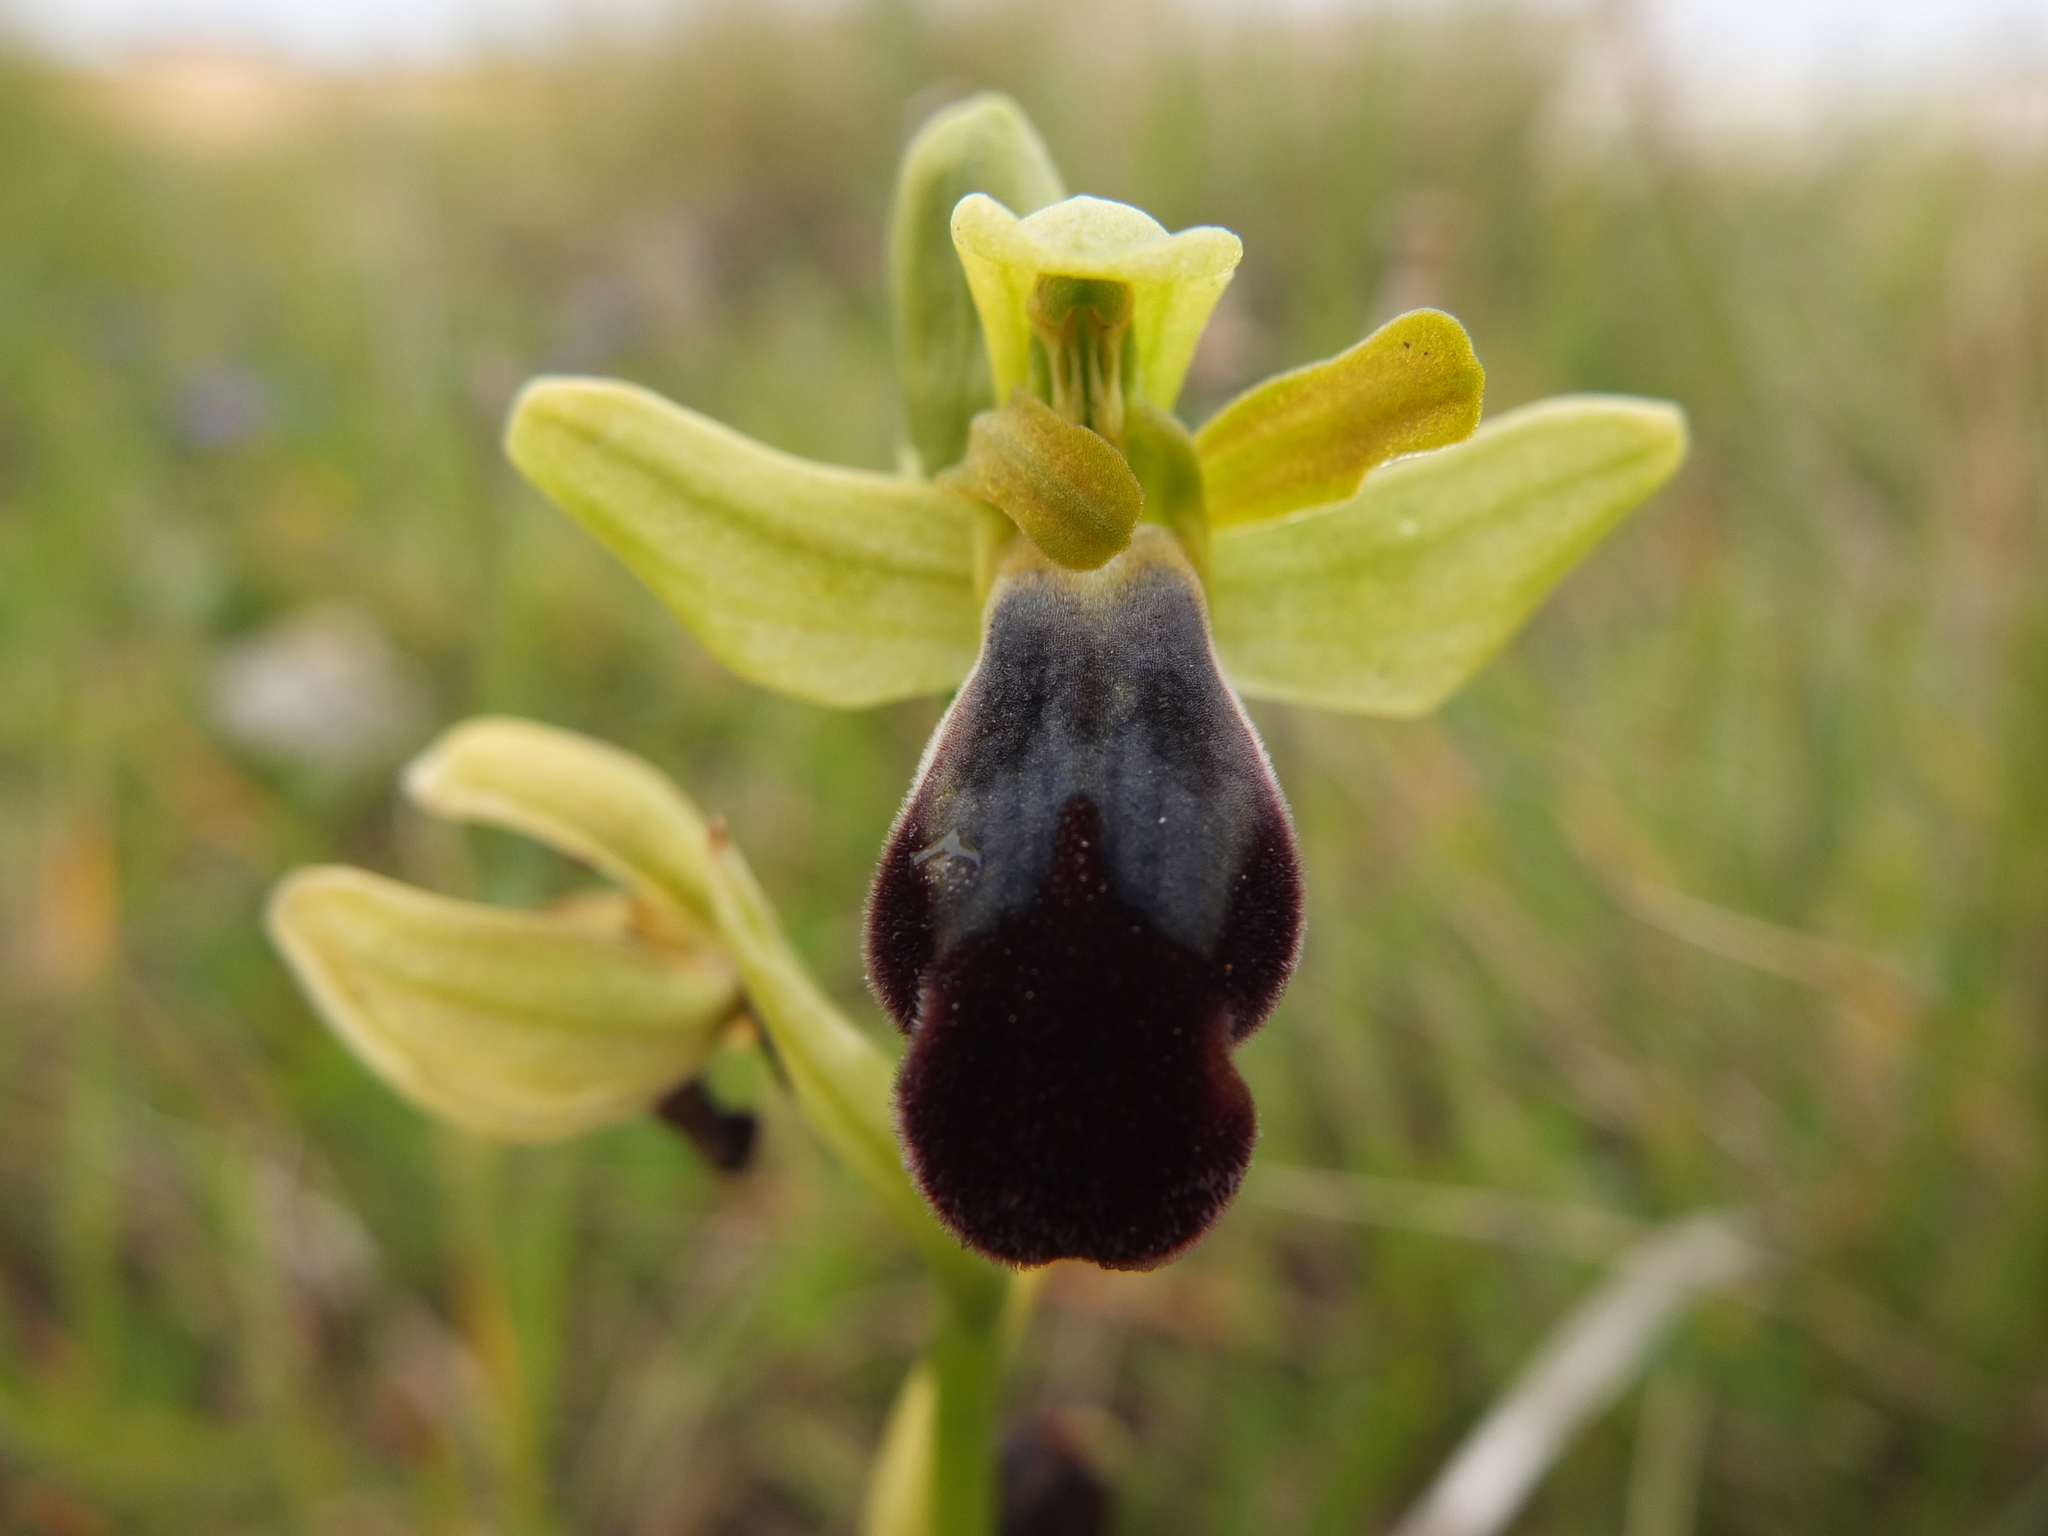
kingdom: Plantae
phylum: Tracheophyta
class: Liliopsida
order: Asparagales
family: Orchidaceae
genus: Ophrys
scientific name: Ophrys fusca
